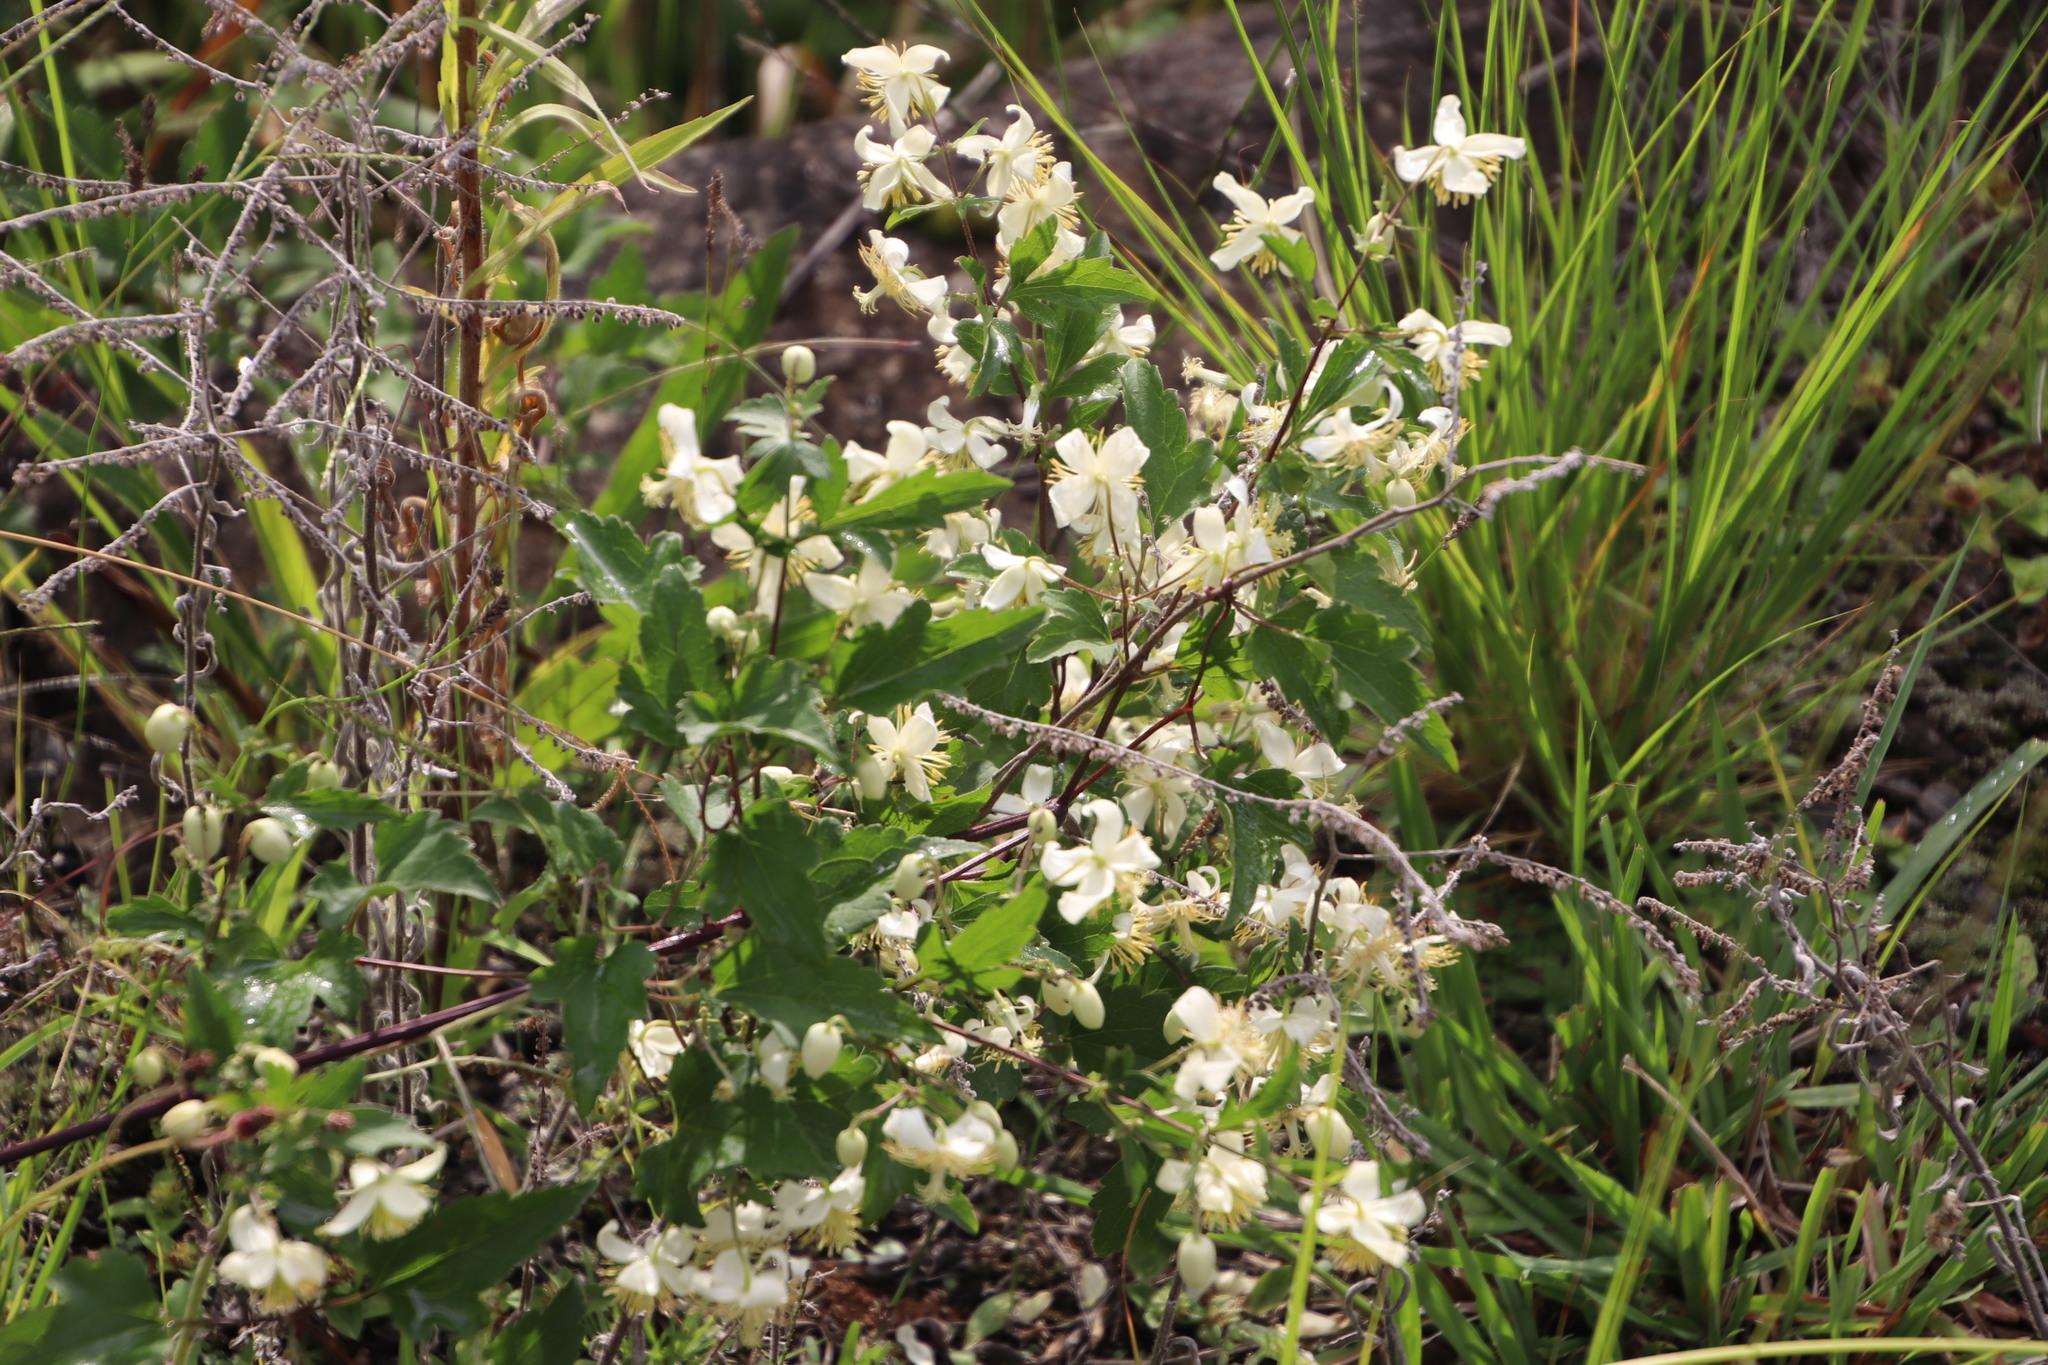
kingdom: Plantae
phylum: Tracheophyta
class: Magnoliopsida
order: Ranunculales
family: Ranunculaceae
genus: Clematis
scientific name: Clematis brachiata
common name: Traveler's-joy
